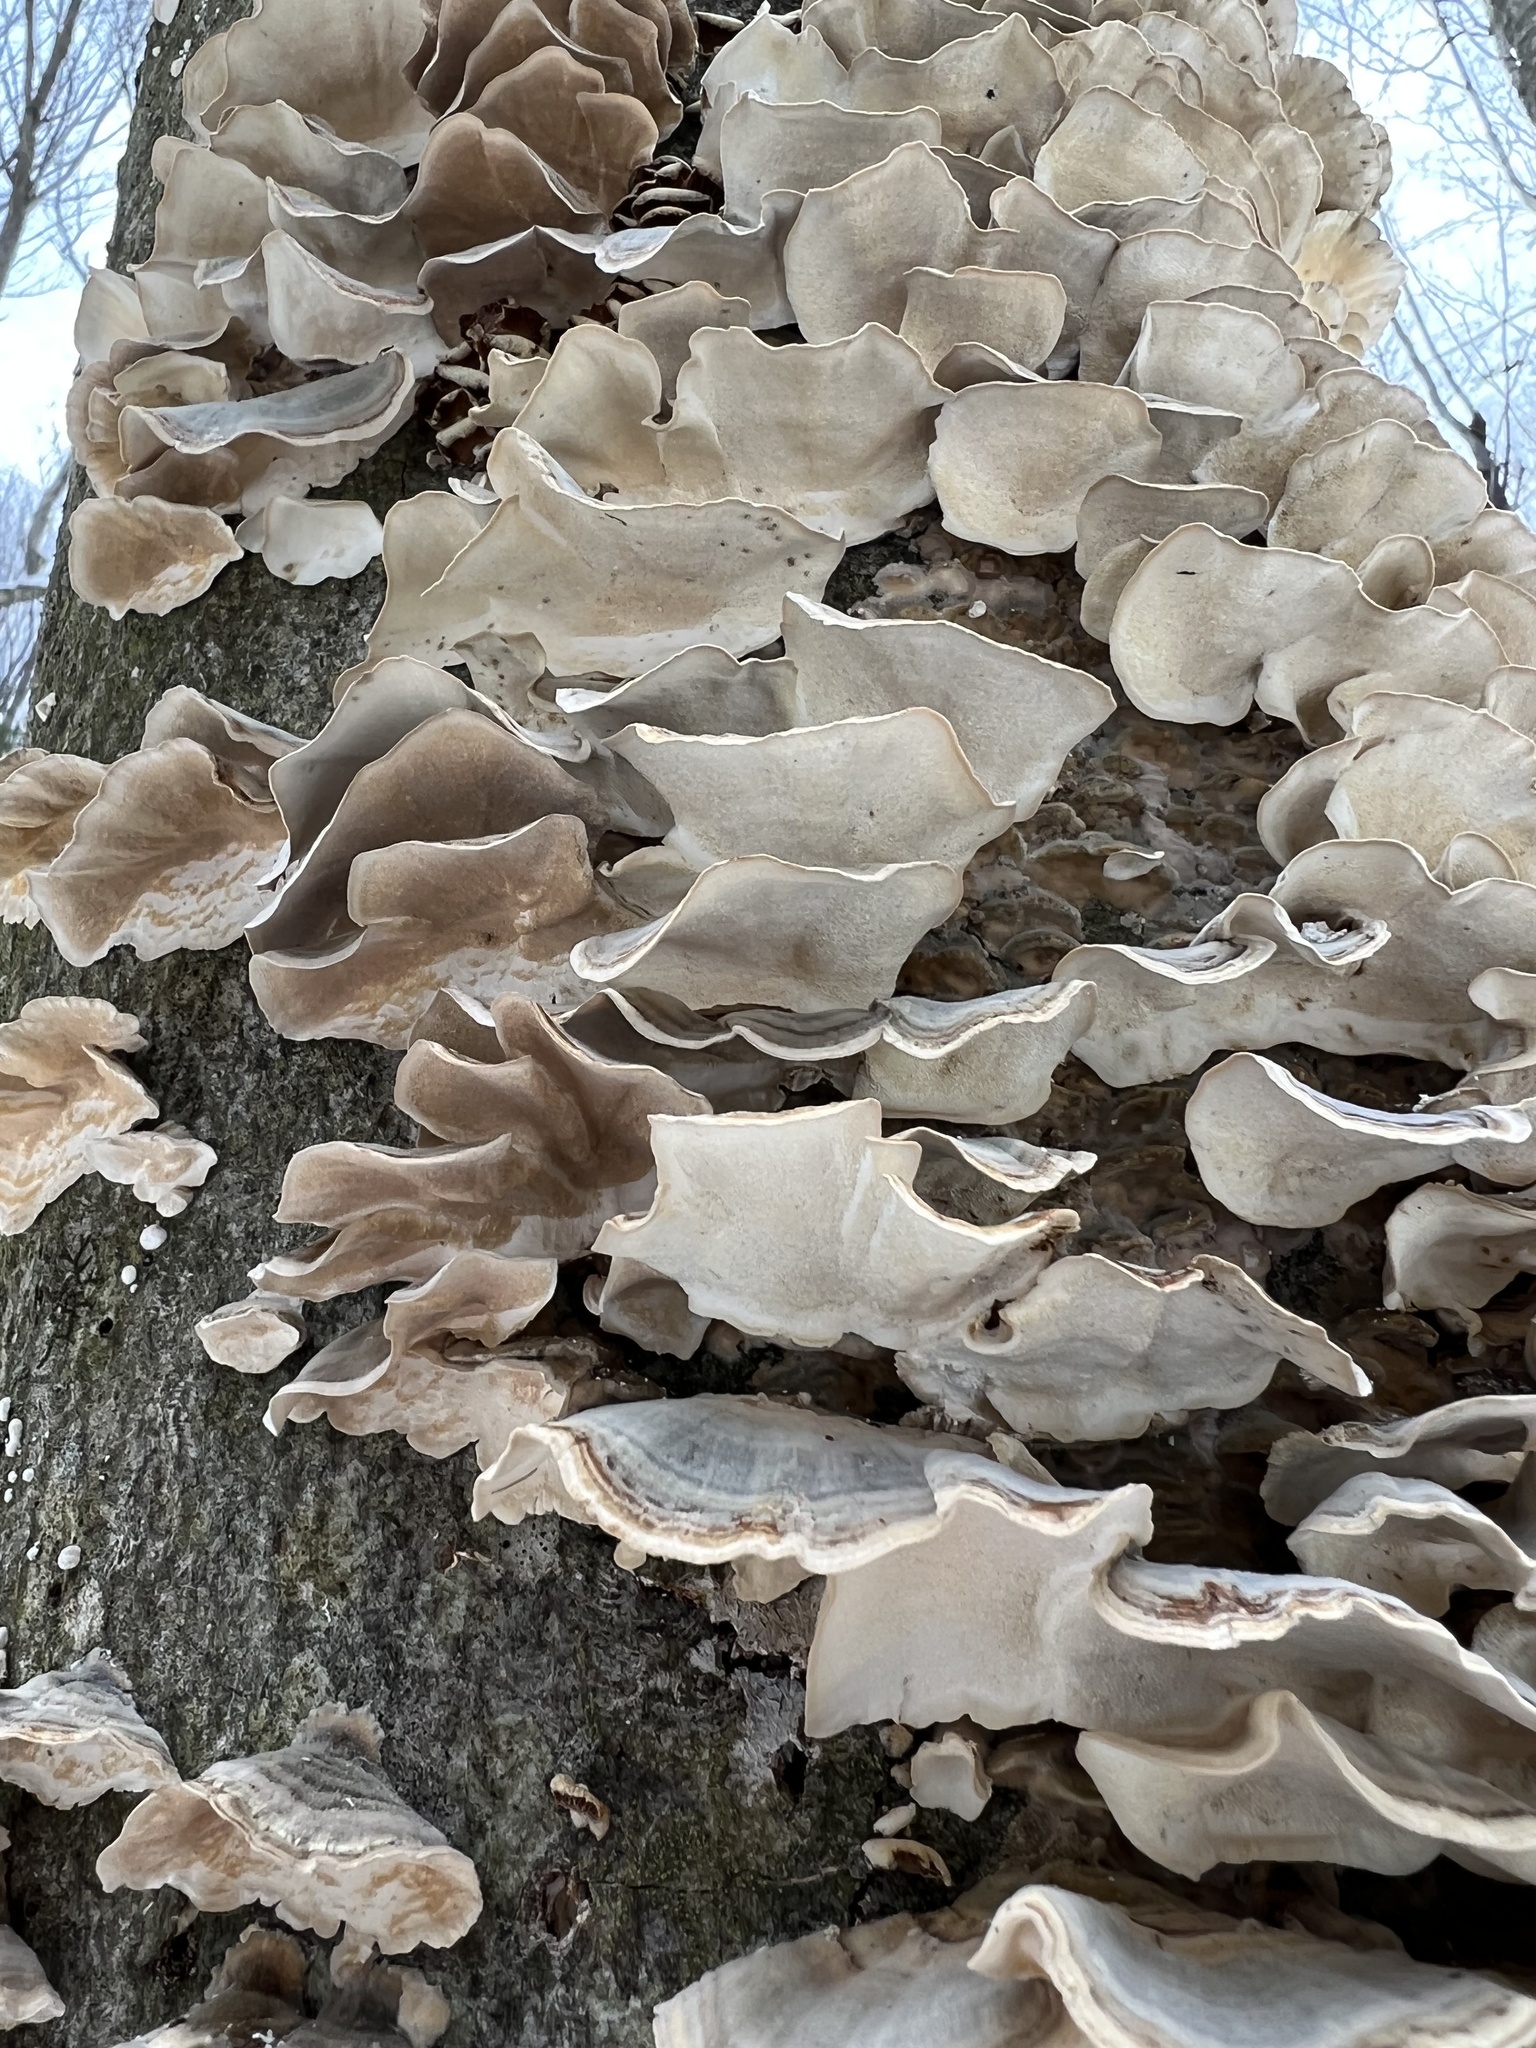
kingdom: Fungi
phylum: Basidiomycota
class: Agaricomycetes
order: Polyporales
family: Polyporaceae
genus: Trametes
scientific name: Trametes versicolor
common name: Turkeytail
